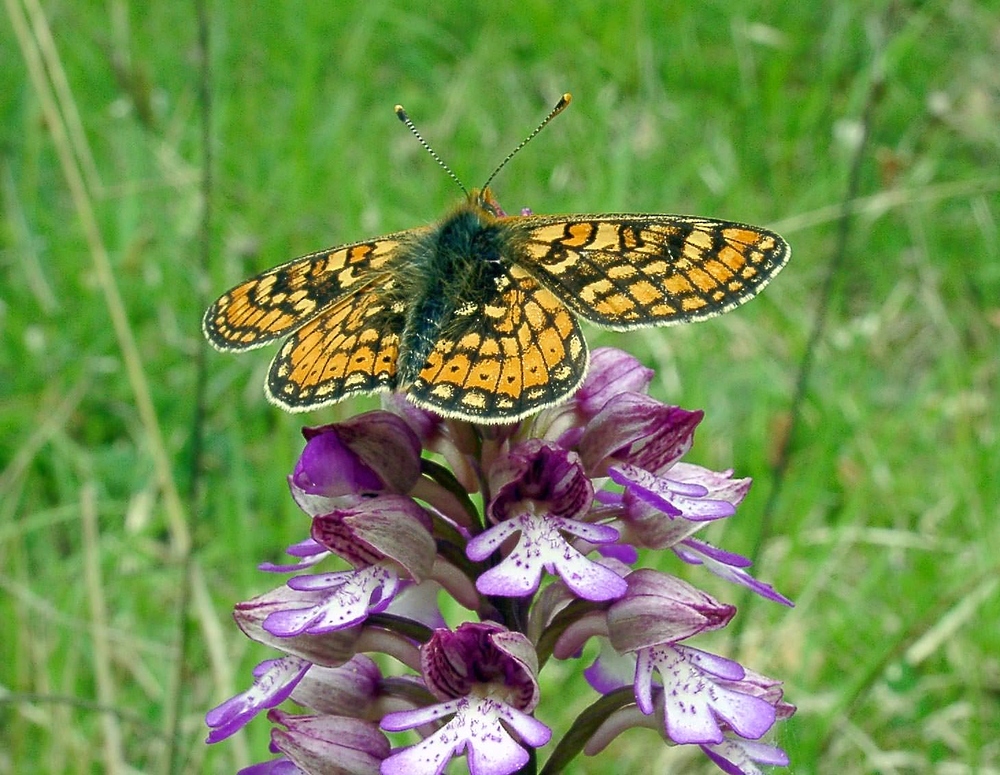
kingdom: Animalia
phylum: Arthropoda
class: Insecta
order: Lepidoptera
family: Nymphalidae
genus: Euphydryas
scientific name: Euphydryas aurinia
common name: Marsh fritillary
